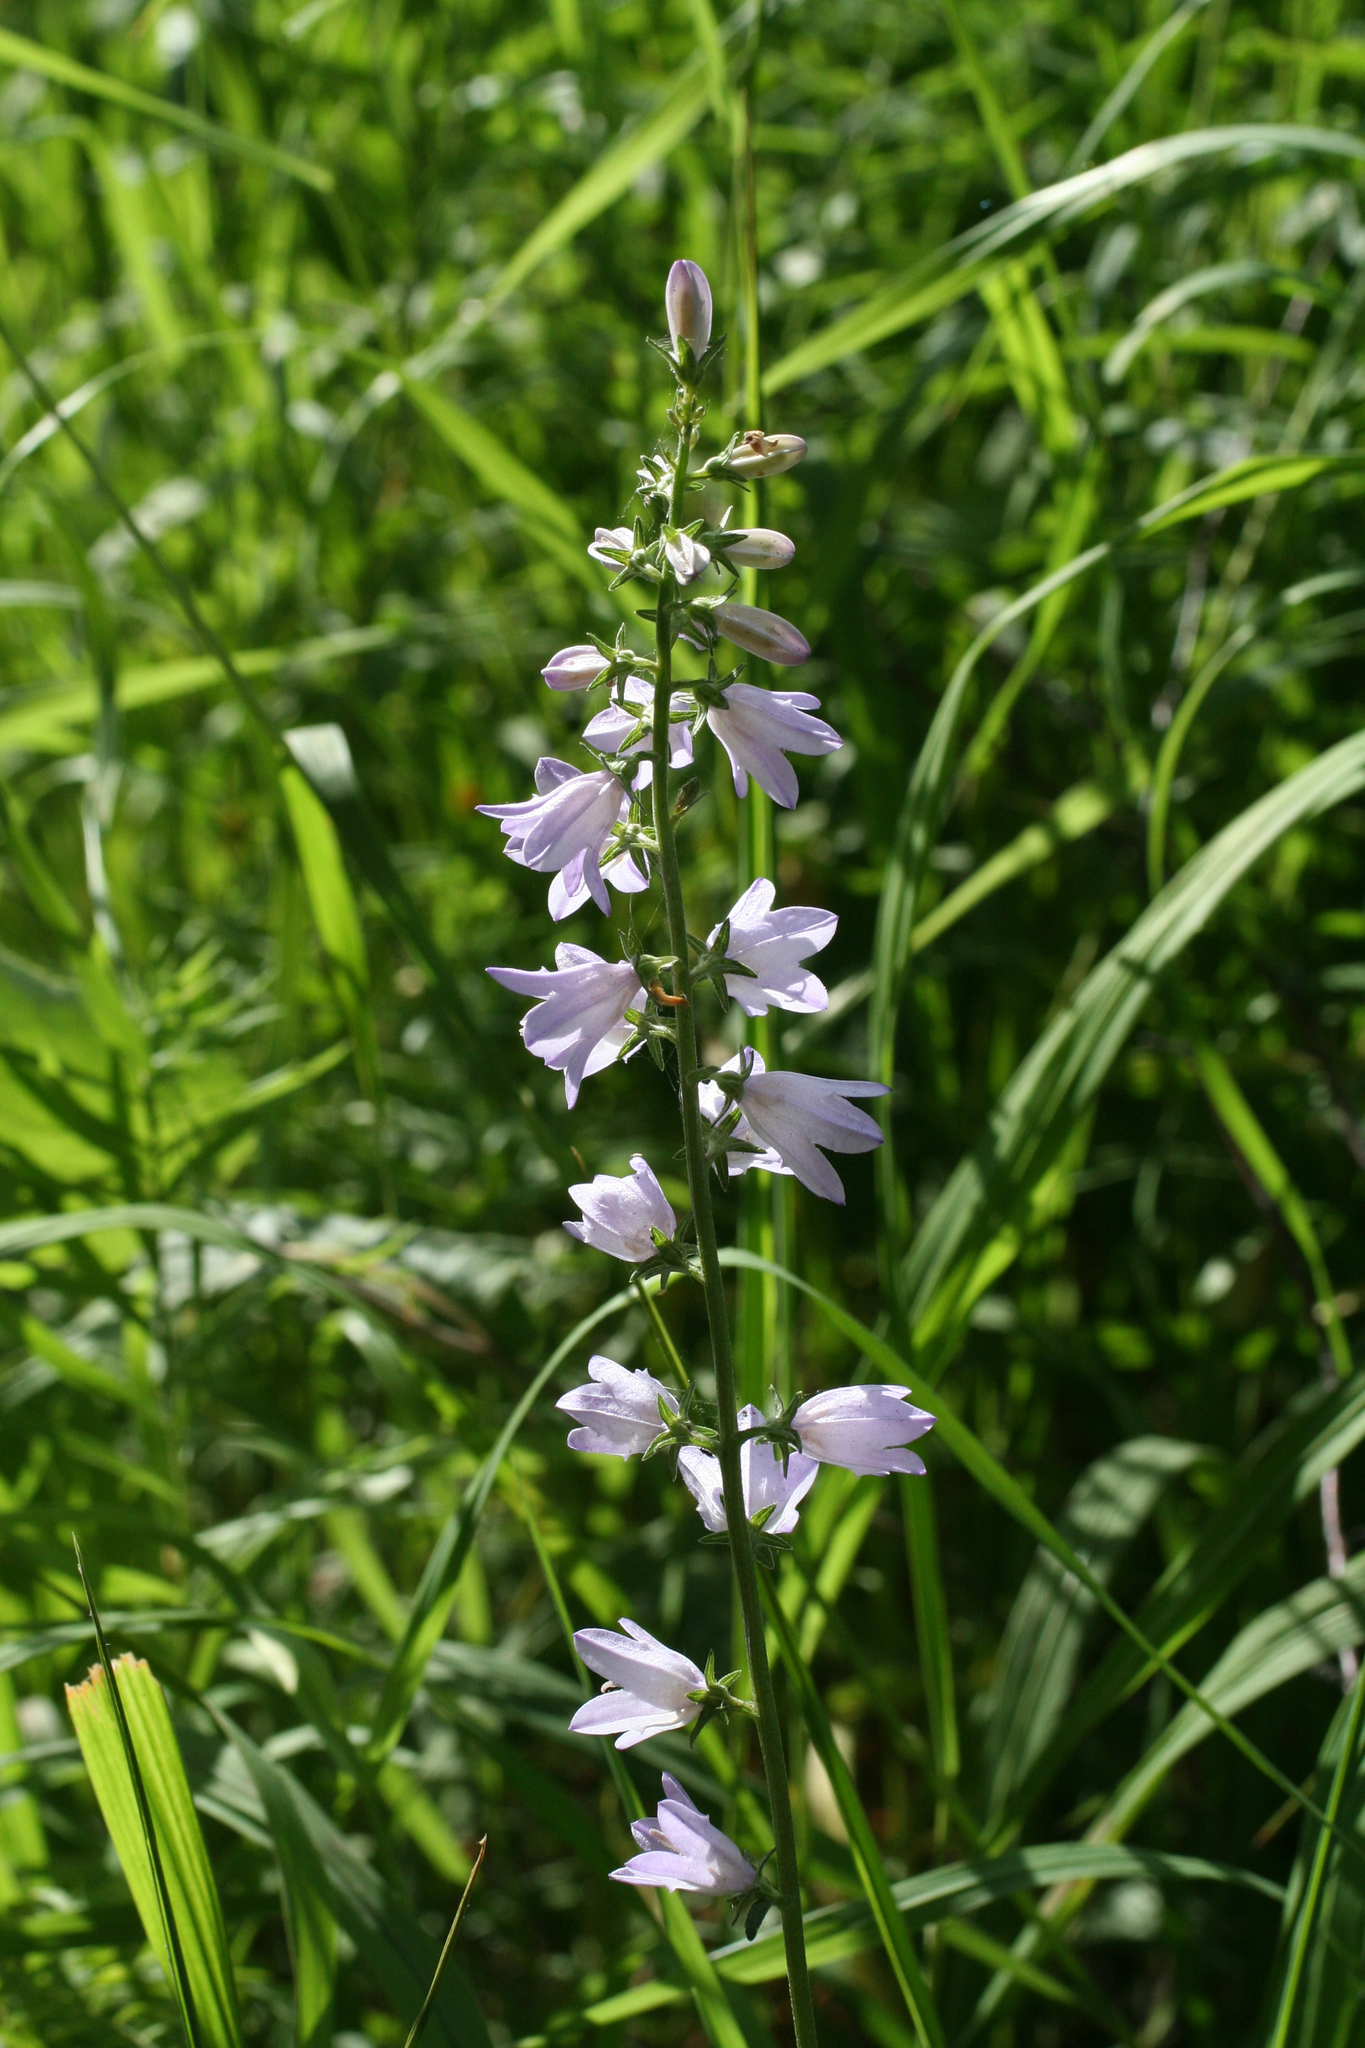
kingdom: Plantae
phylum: Tracheophyta
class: Magnoliopsida
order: Asterales
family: Campanulaceae
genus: Campanula
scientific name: Campanula bononiensis
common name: Pale bellflower
